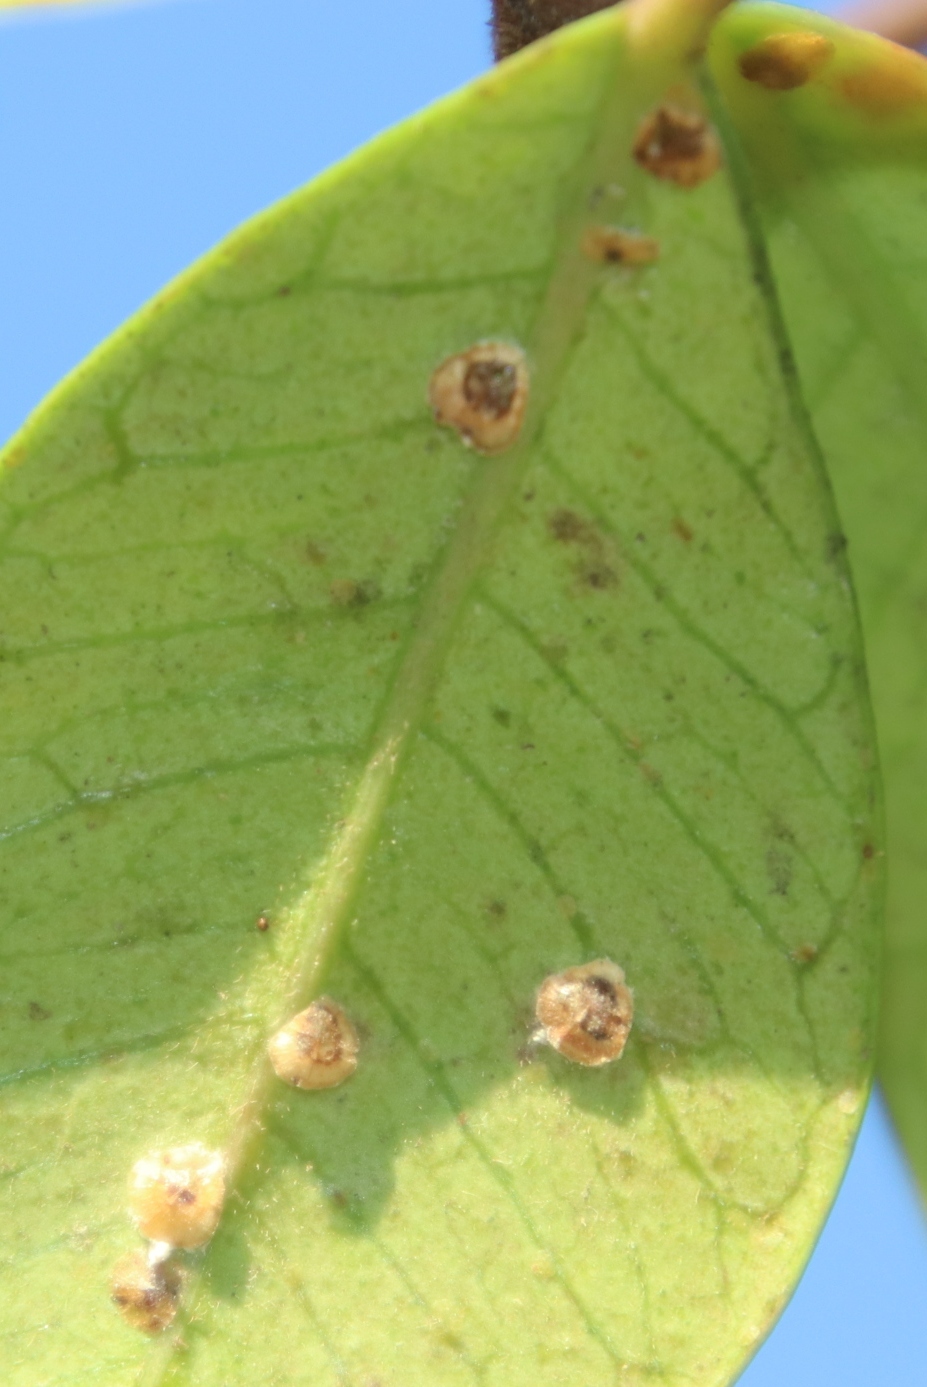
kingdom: Animalia
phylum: Arthropoda
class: Insecta
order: Hemiptera
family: Coccidae
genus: Protopulvinaria
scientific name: Protopulvinaria pyriformis
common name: Pyriform scale
